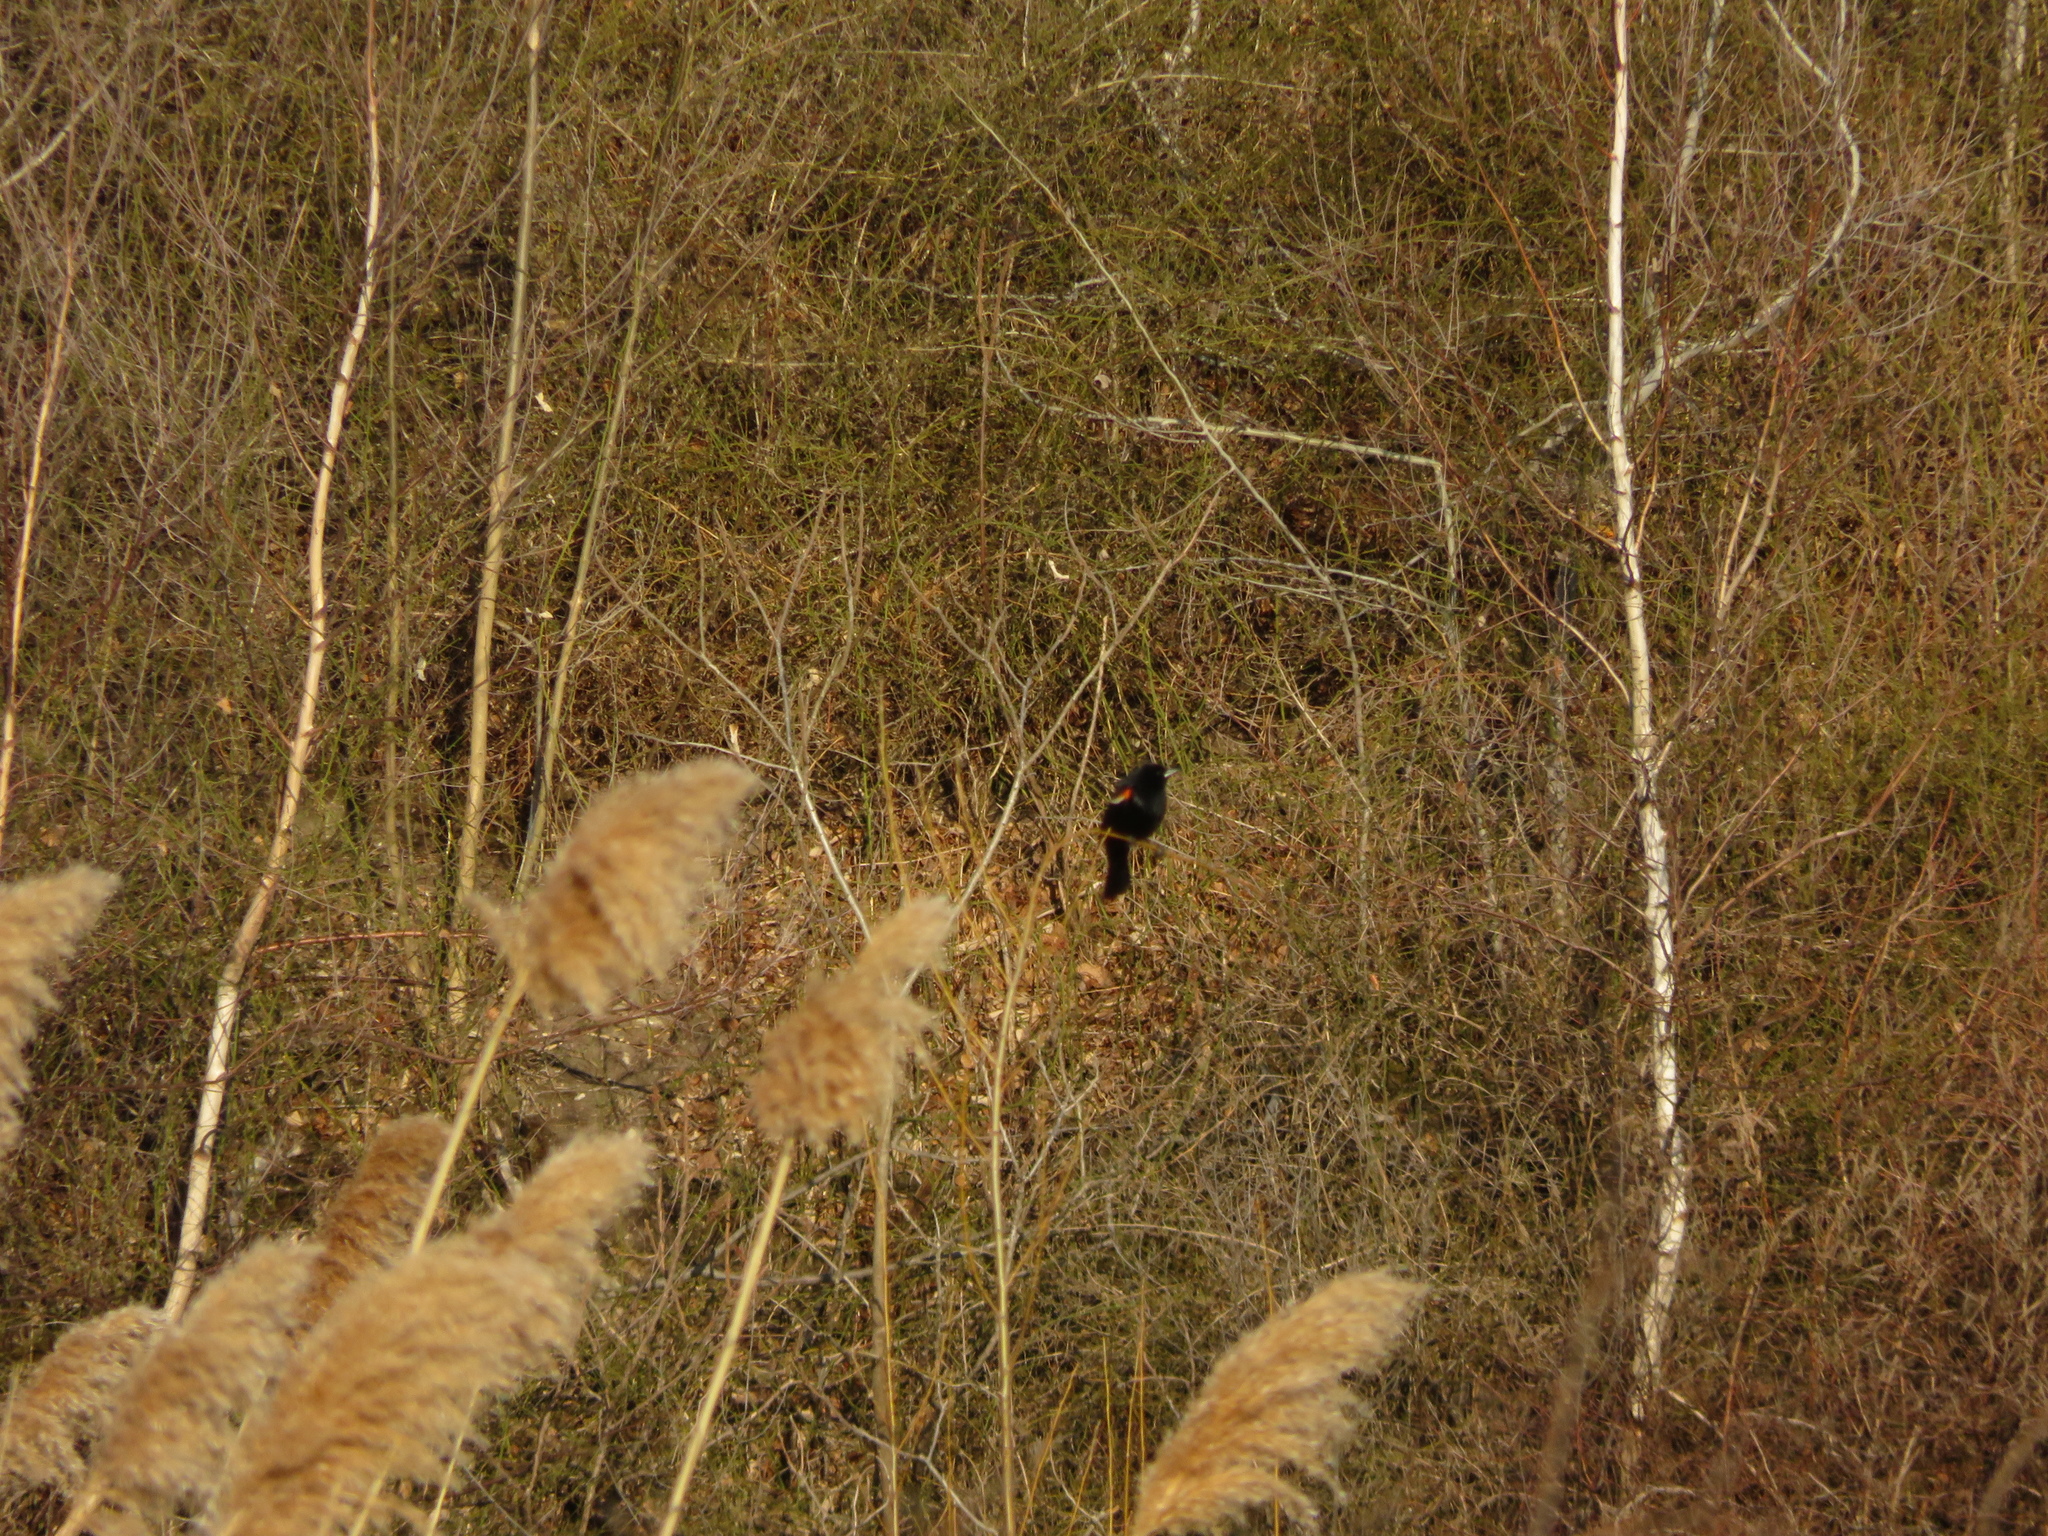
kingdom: Animalia
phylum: Chordata
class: Aves
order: Passeriformes
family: Icteridae
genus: Agelaius
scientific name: Agelaius phoeniceus
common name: Red-winged blackbird
